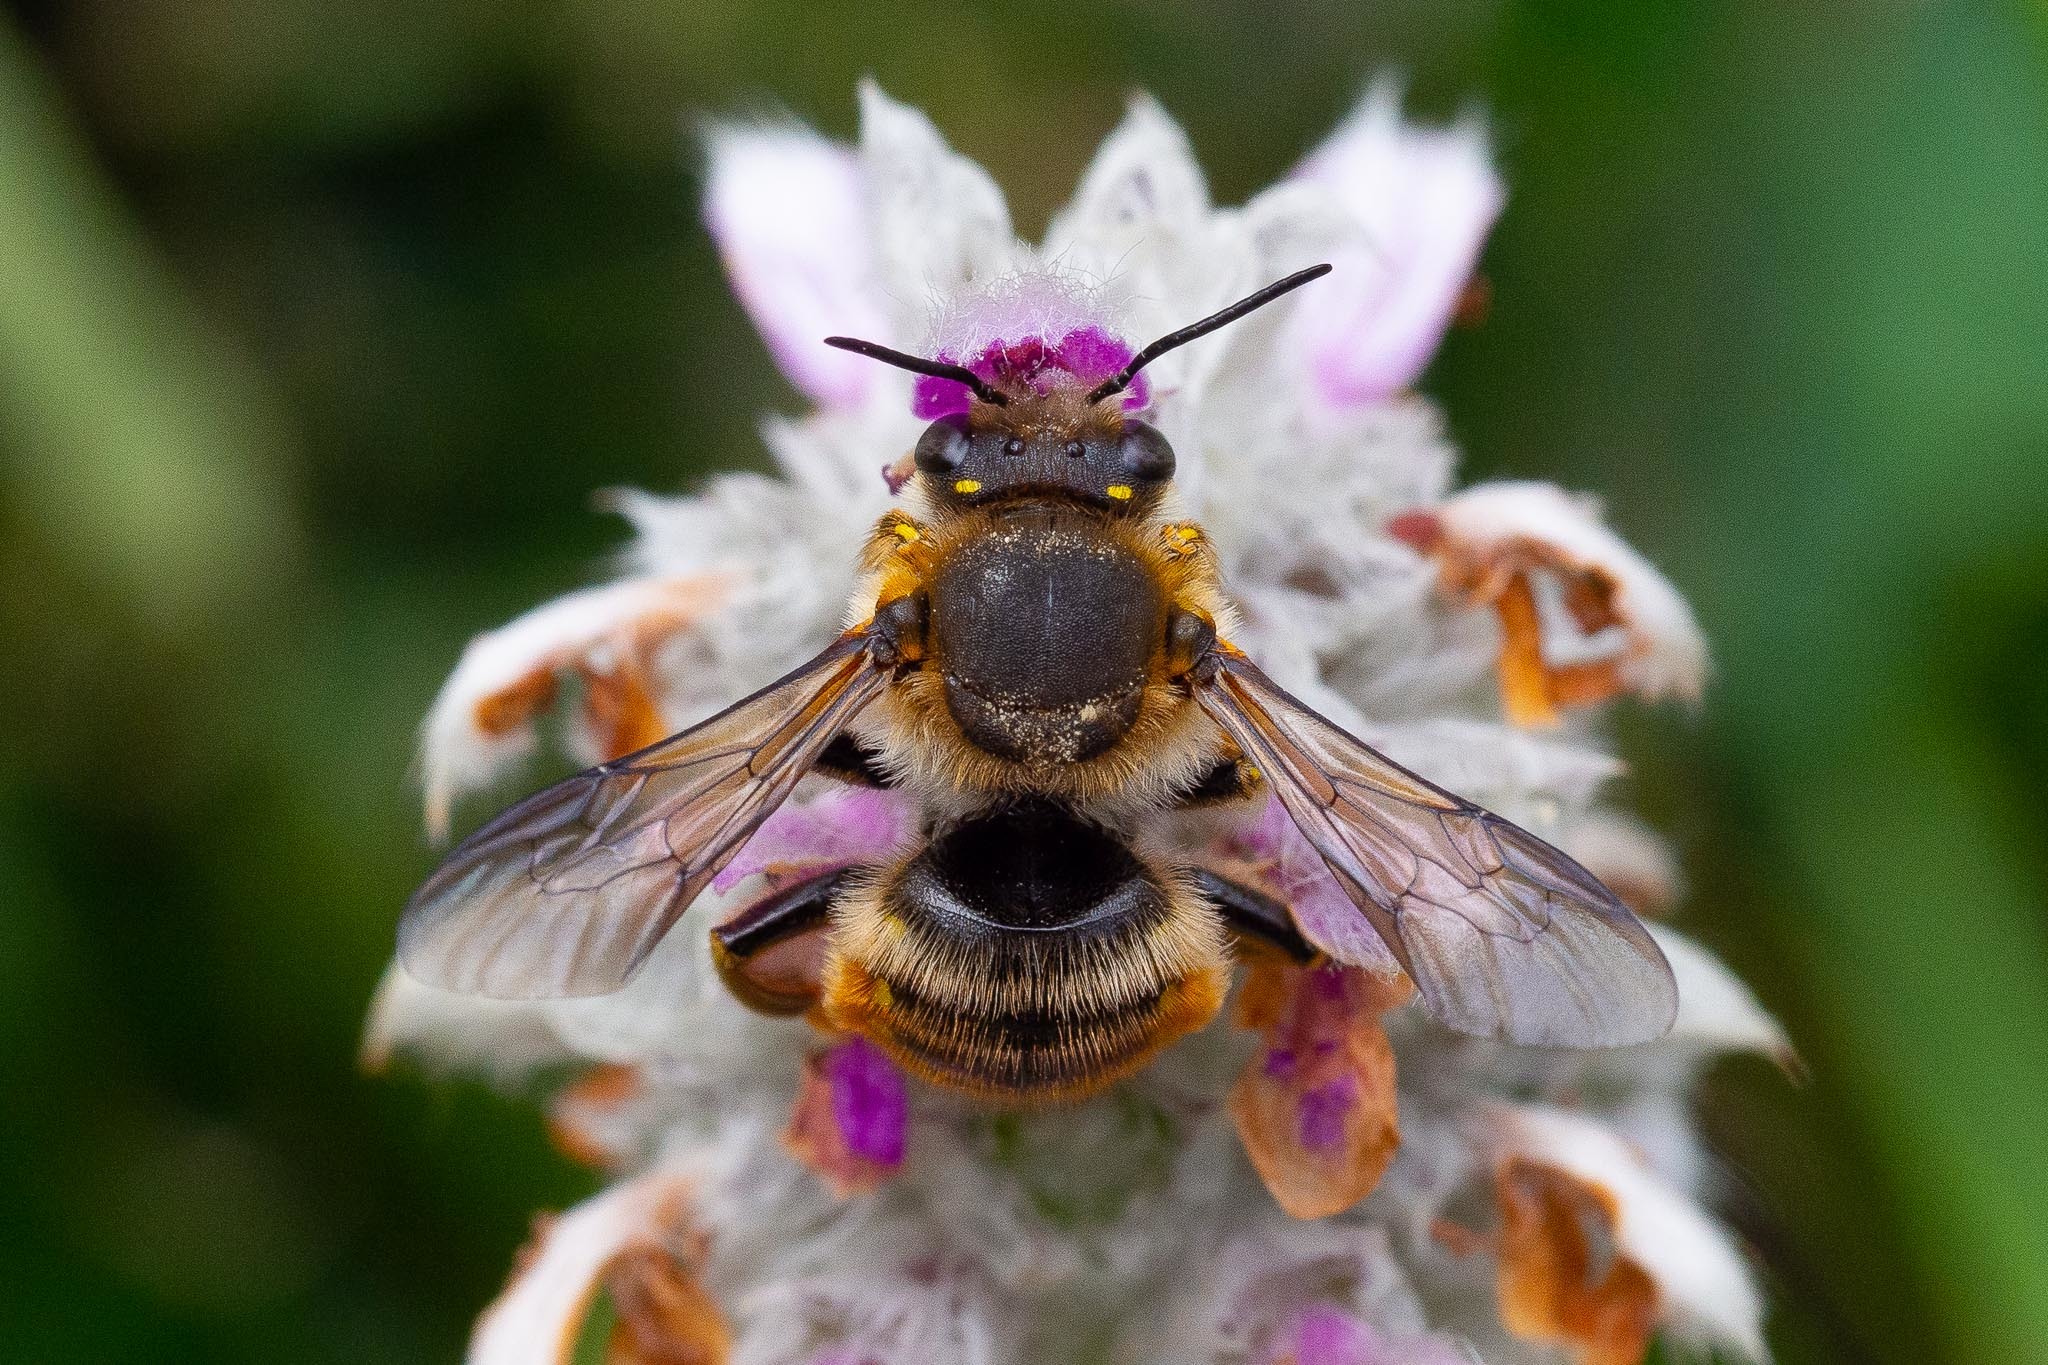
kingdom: Animalia
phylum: Arthropoda
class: Insecta
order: Hymenoptera
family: Megachilidae
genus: Anthidium
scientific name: Anthidium manicatum
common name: Wool carder bee
